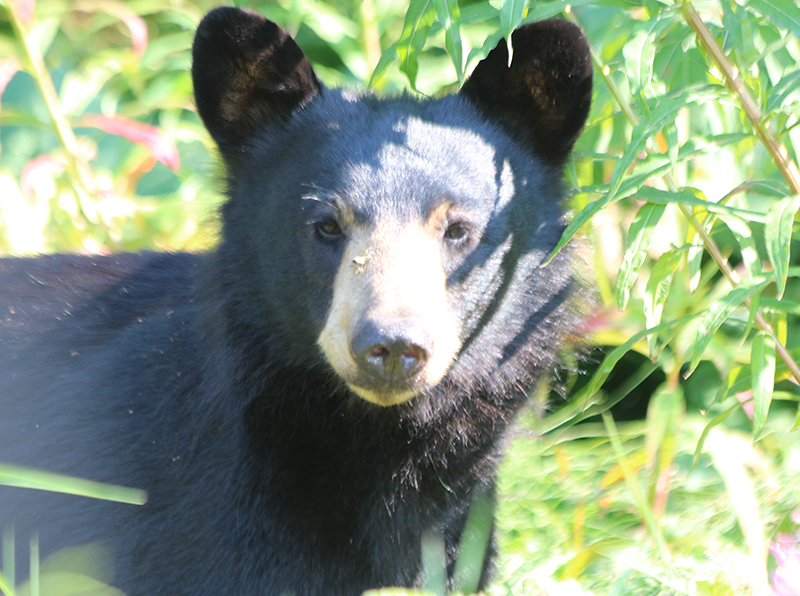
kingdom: Animalia
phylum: Chordata
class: Mammalia
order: Carnivora
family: Ursidae
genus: Ursus
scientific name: Ursus americanus
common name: American black bear
